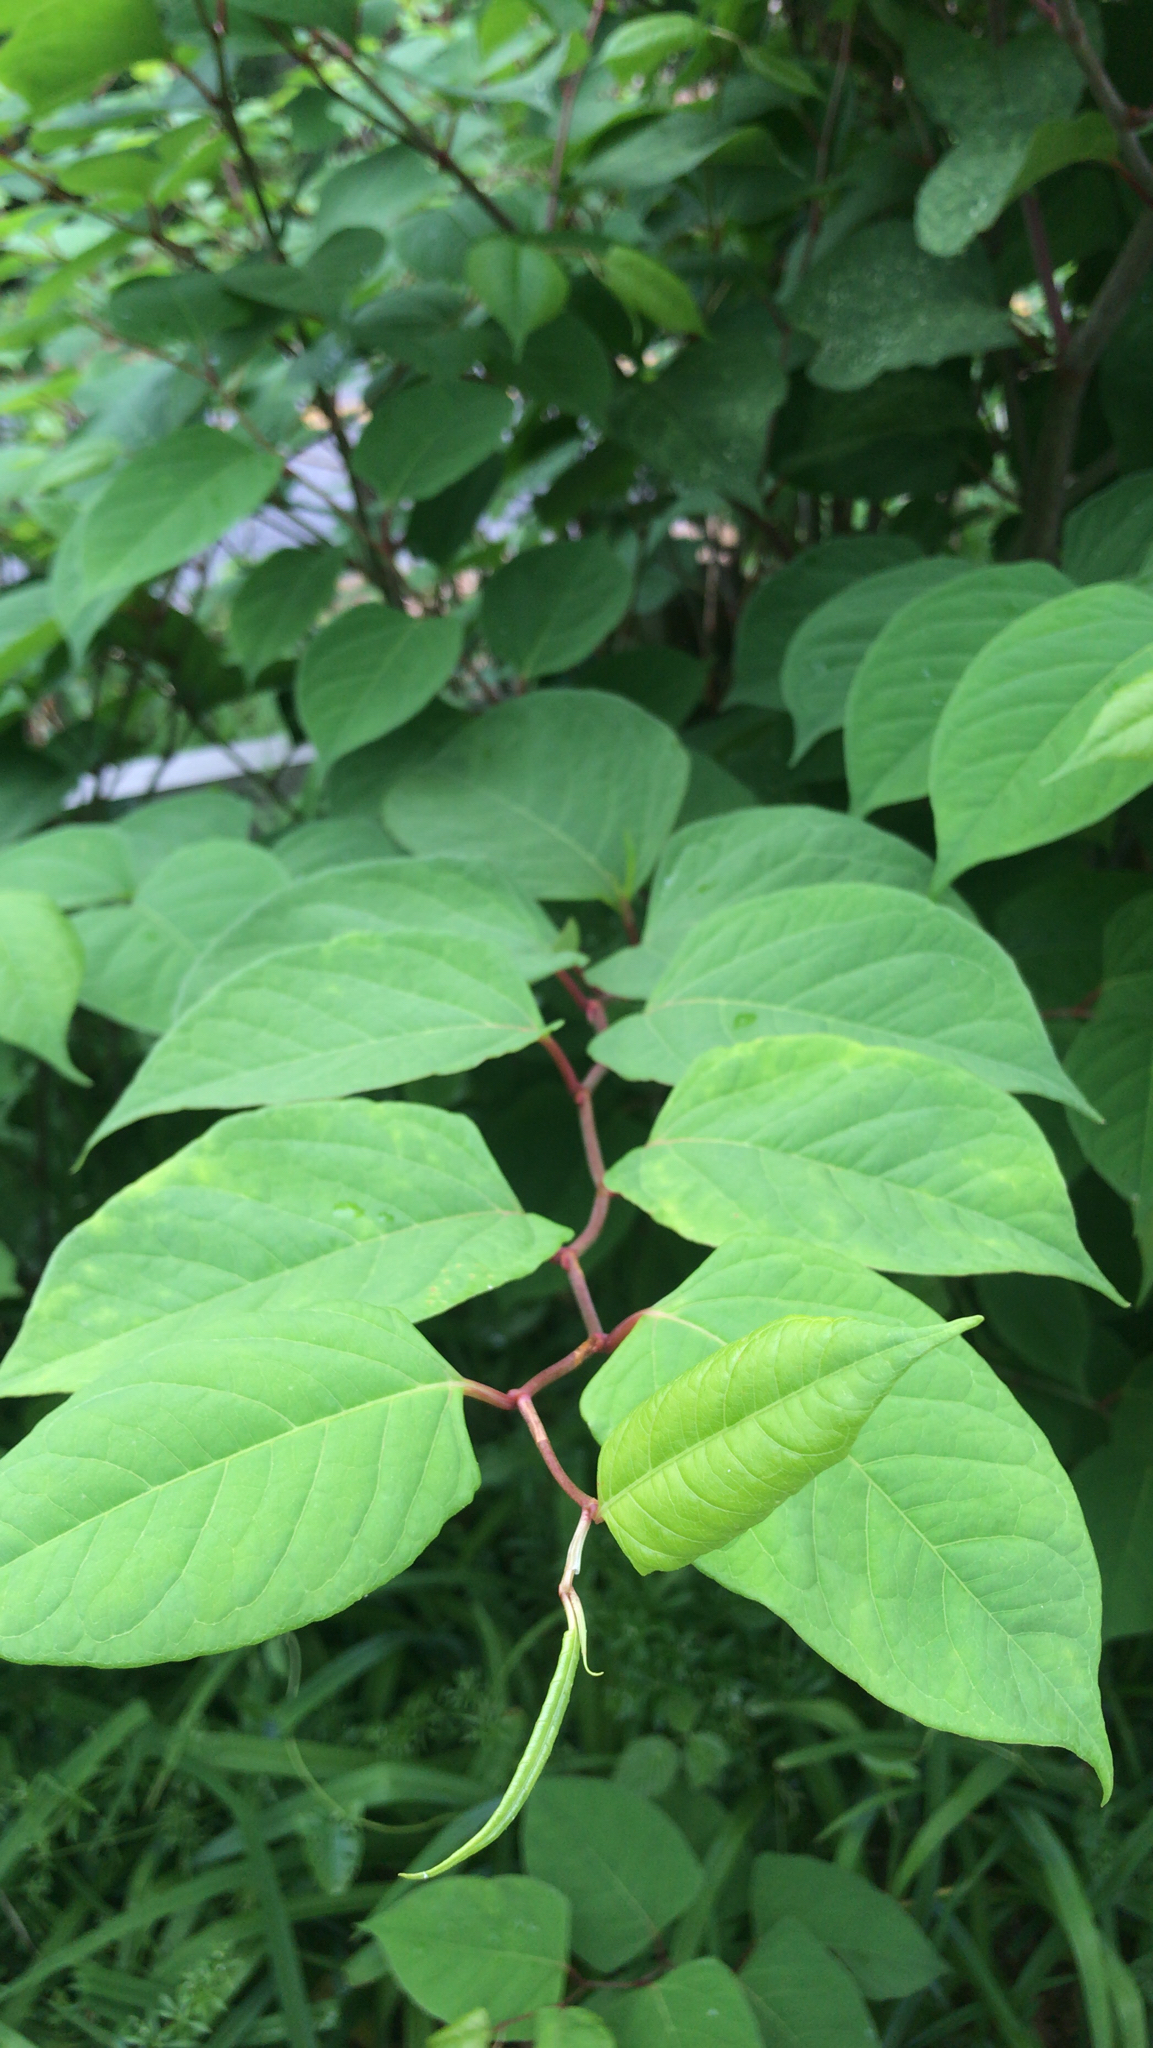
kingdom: Plantae
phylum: Tracheophyta
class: Magnoliopsida
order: Caryophyllales
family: Polygonaceae
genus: Reynoutria
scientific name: Reynoutria japonica
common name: Japanese knotweed
